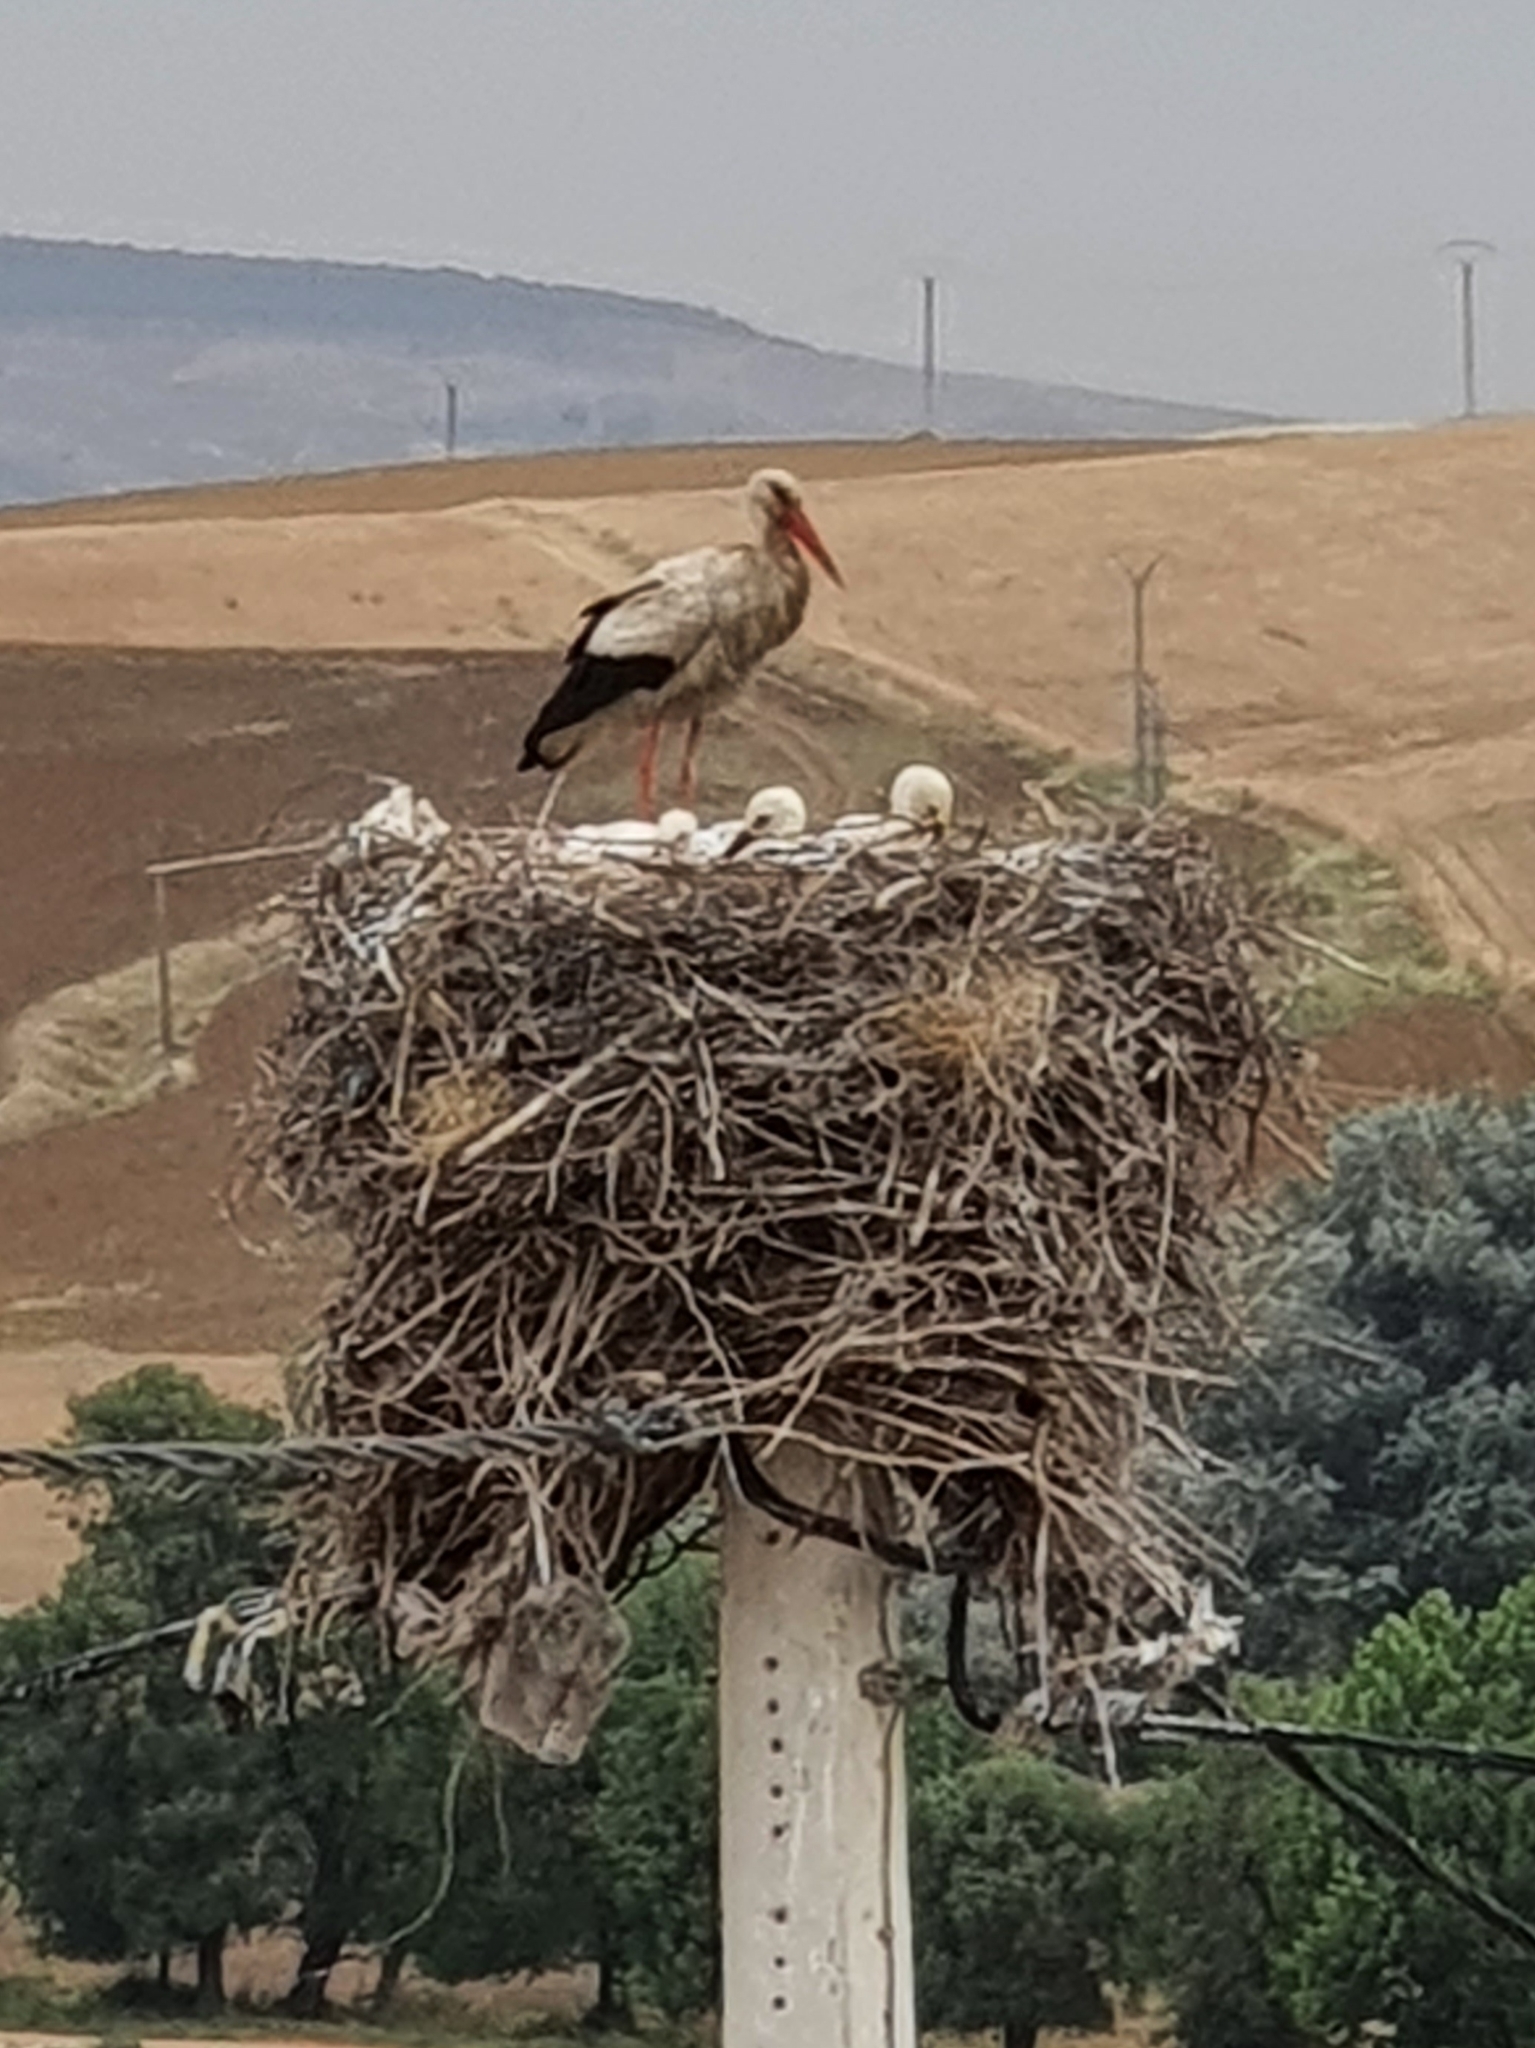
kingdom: Animalia
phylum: Chordata
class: Aves
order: Ciconiiformes
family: Ciconiidae
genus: Ciconia
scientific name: Ciconia ciconia
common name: White stork
